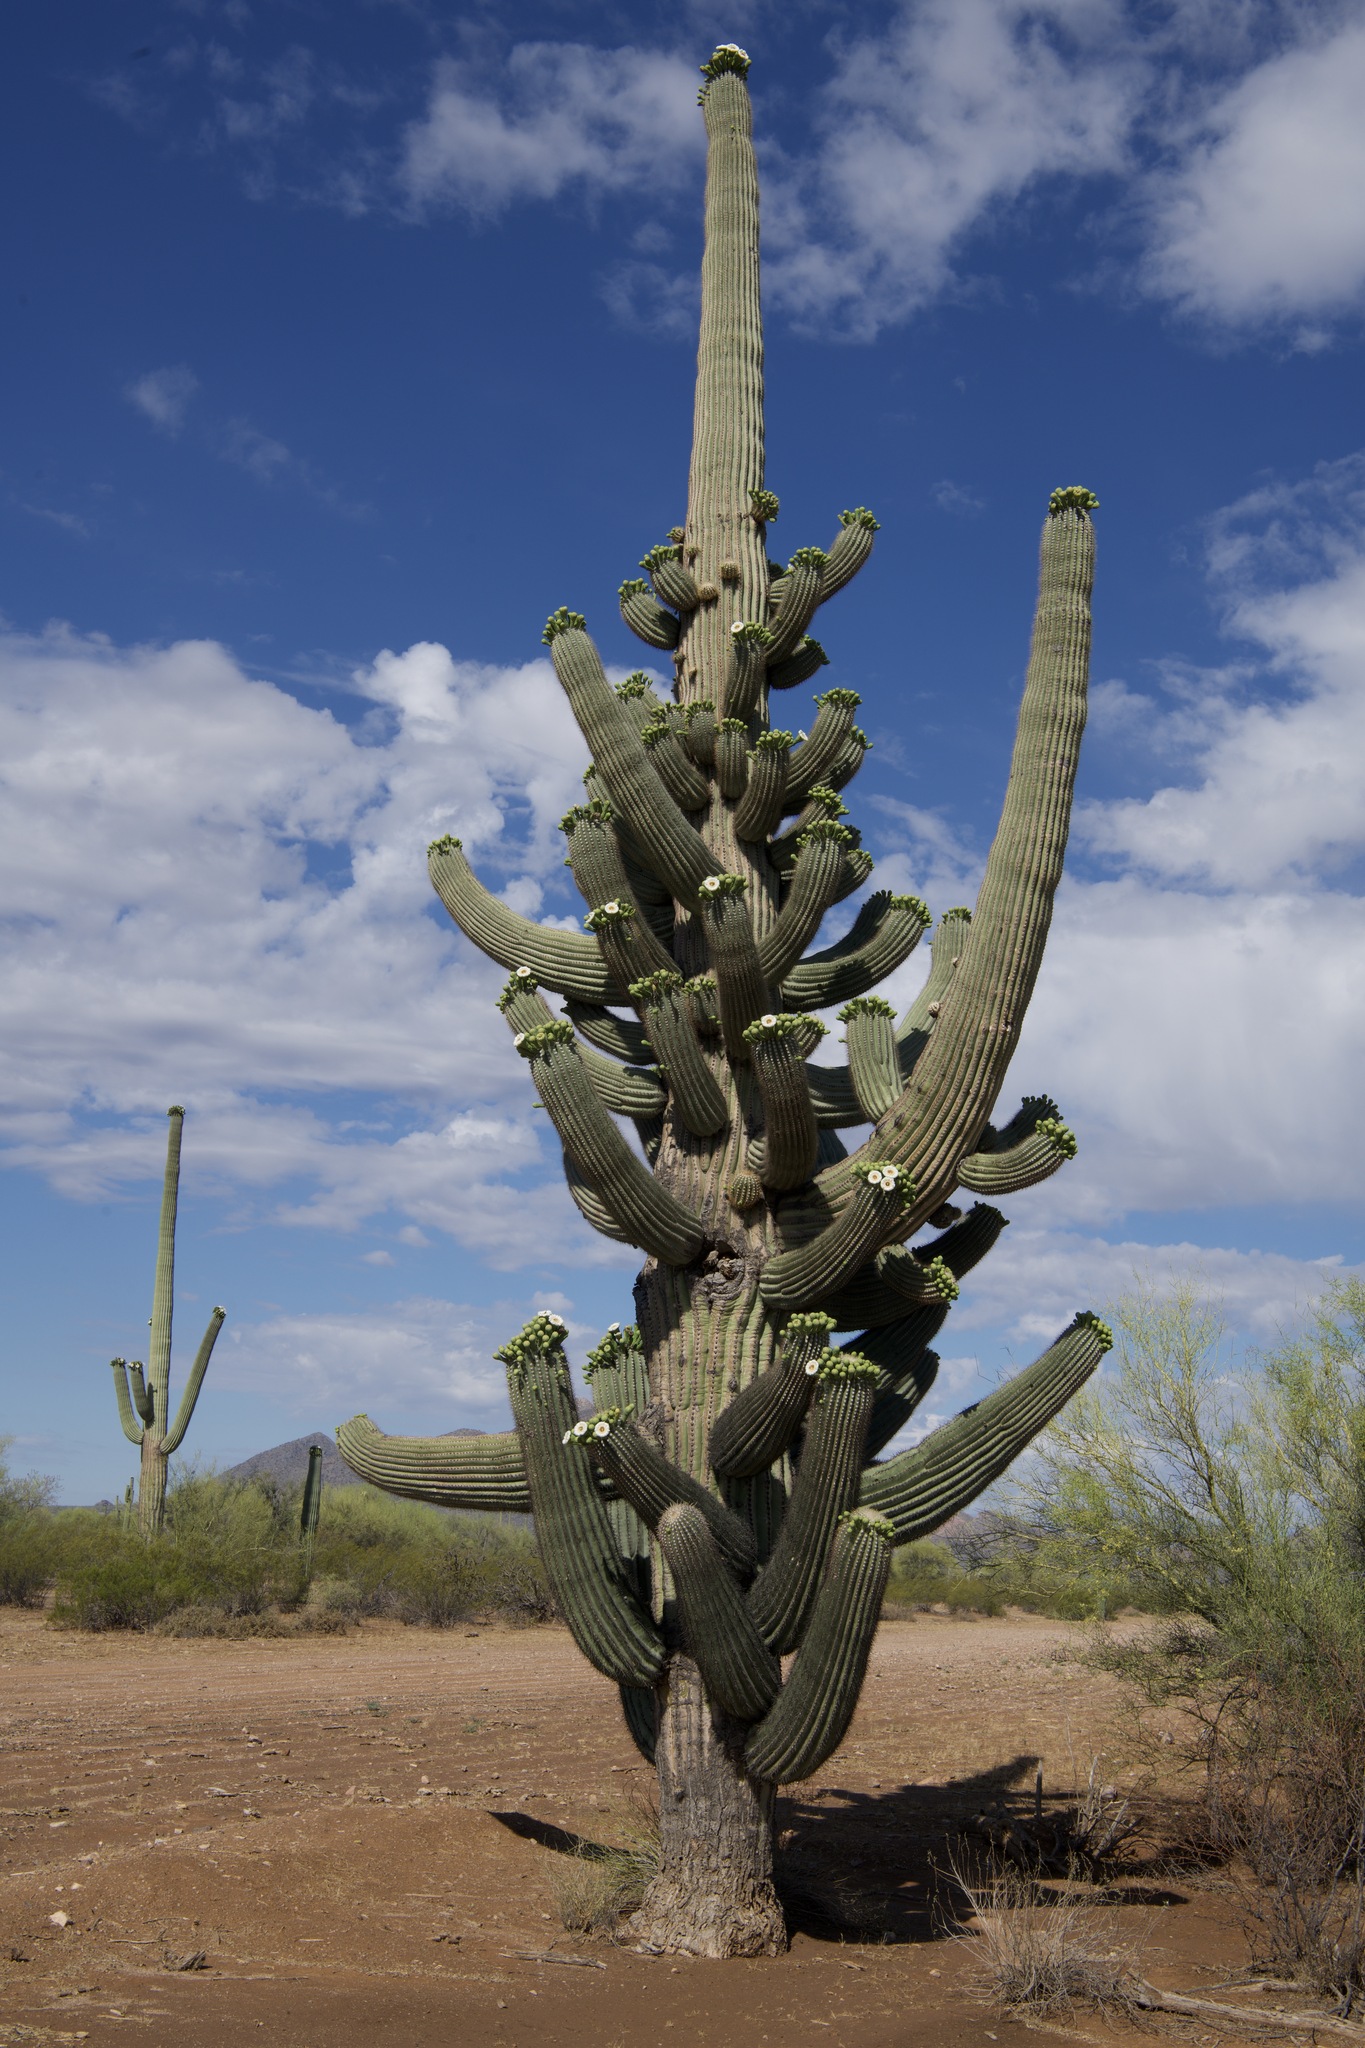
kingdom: Plantae
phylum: Tracheophyta
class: Magnoliopsida
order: Caryophyllales
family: Cactaceae
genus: Carnegiea
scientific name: Carnegiea gigantea
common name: Saguaro
